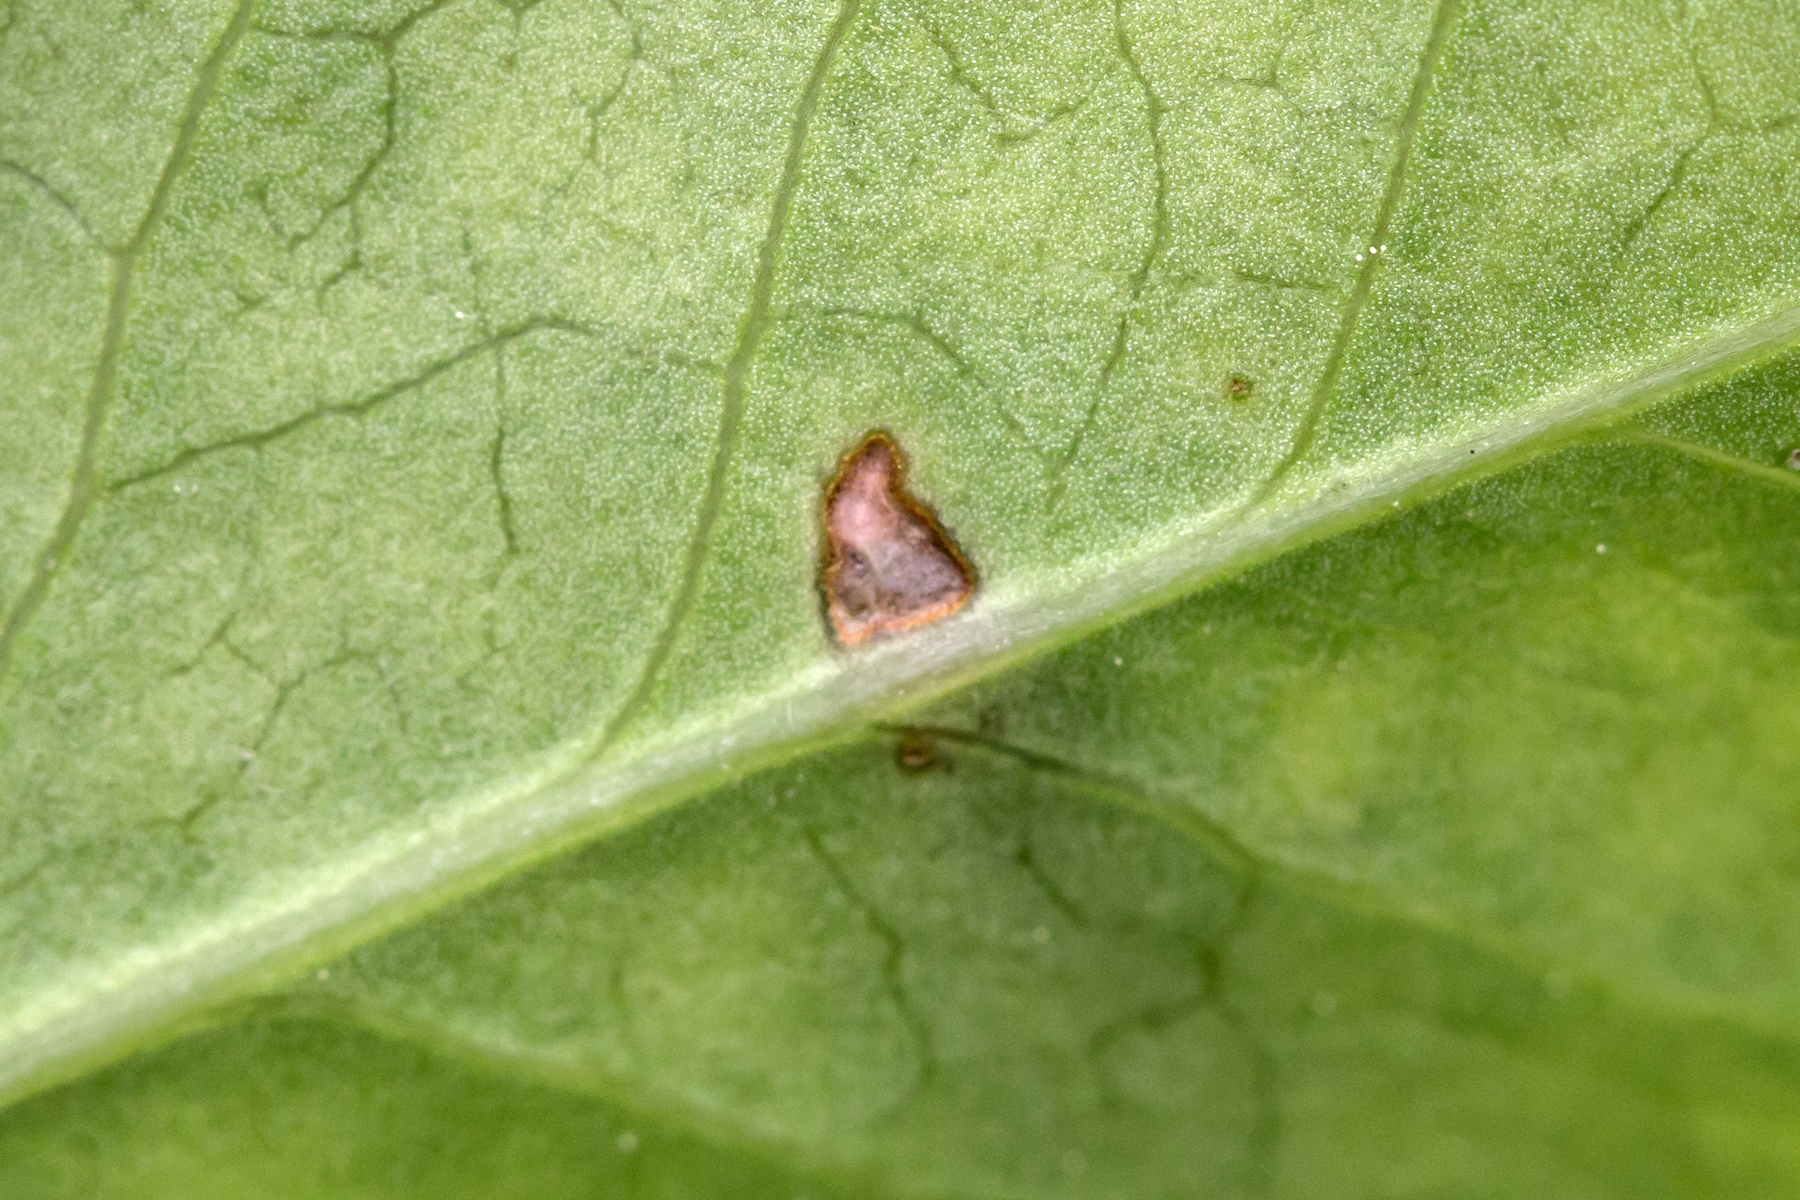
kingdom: Animalia
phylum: Arthropoda
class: Insecta
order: Lepidoptera
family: Psychidae
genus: Psyche
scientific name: Psyche casta
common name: Common sweep
